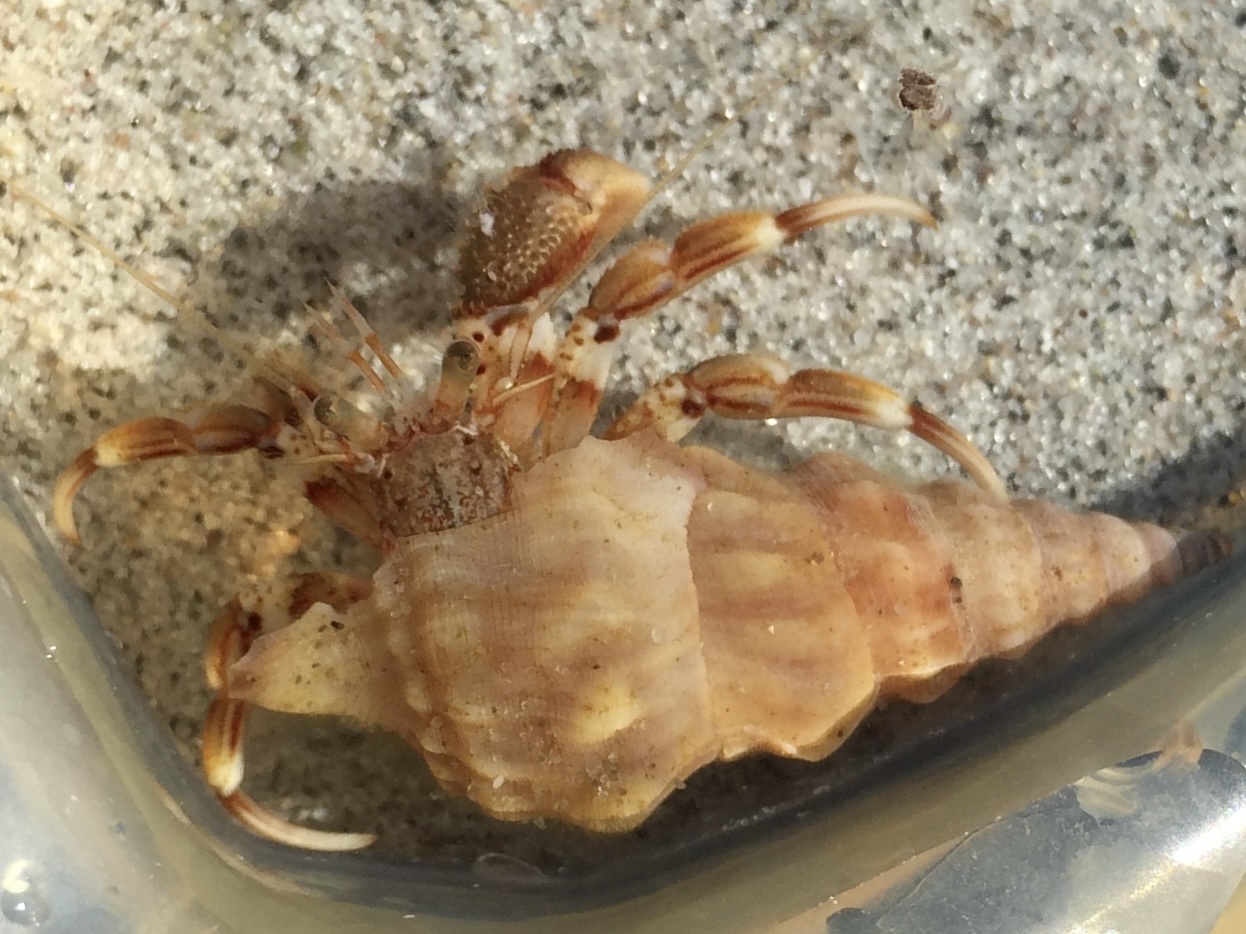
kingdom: Animalia
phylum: Arthropoda
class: Malacostraca
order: Decapoda
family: Paguridae
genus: Pagurus
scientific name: Pagurus bernhardus
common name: Hermit crab
